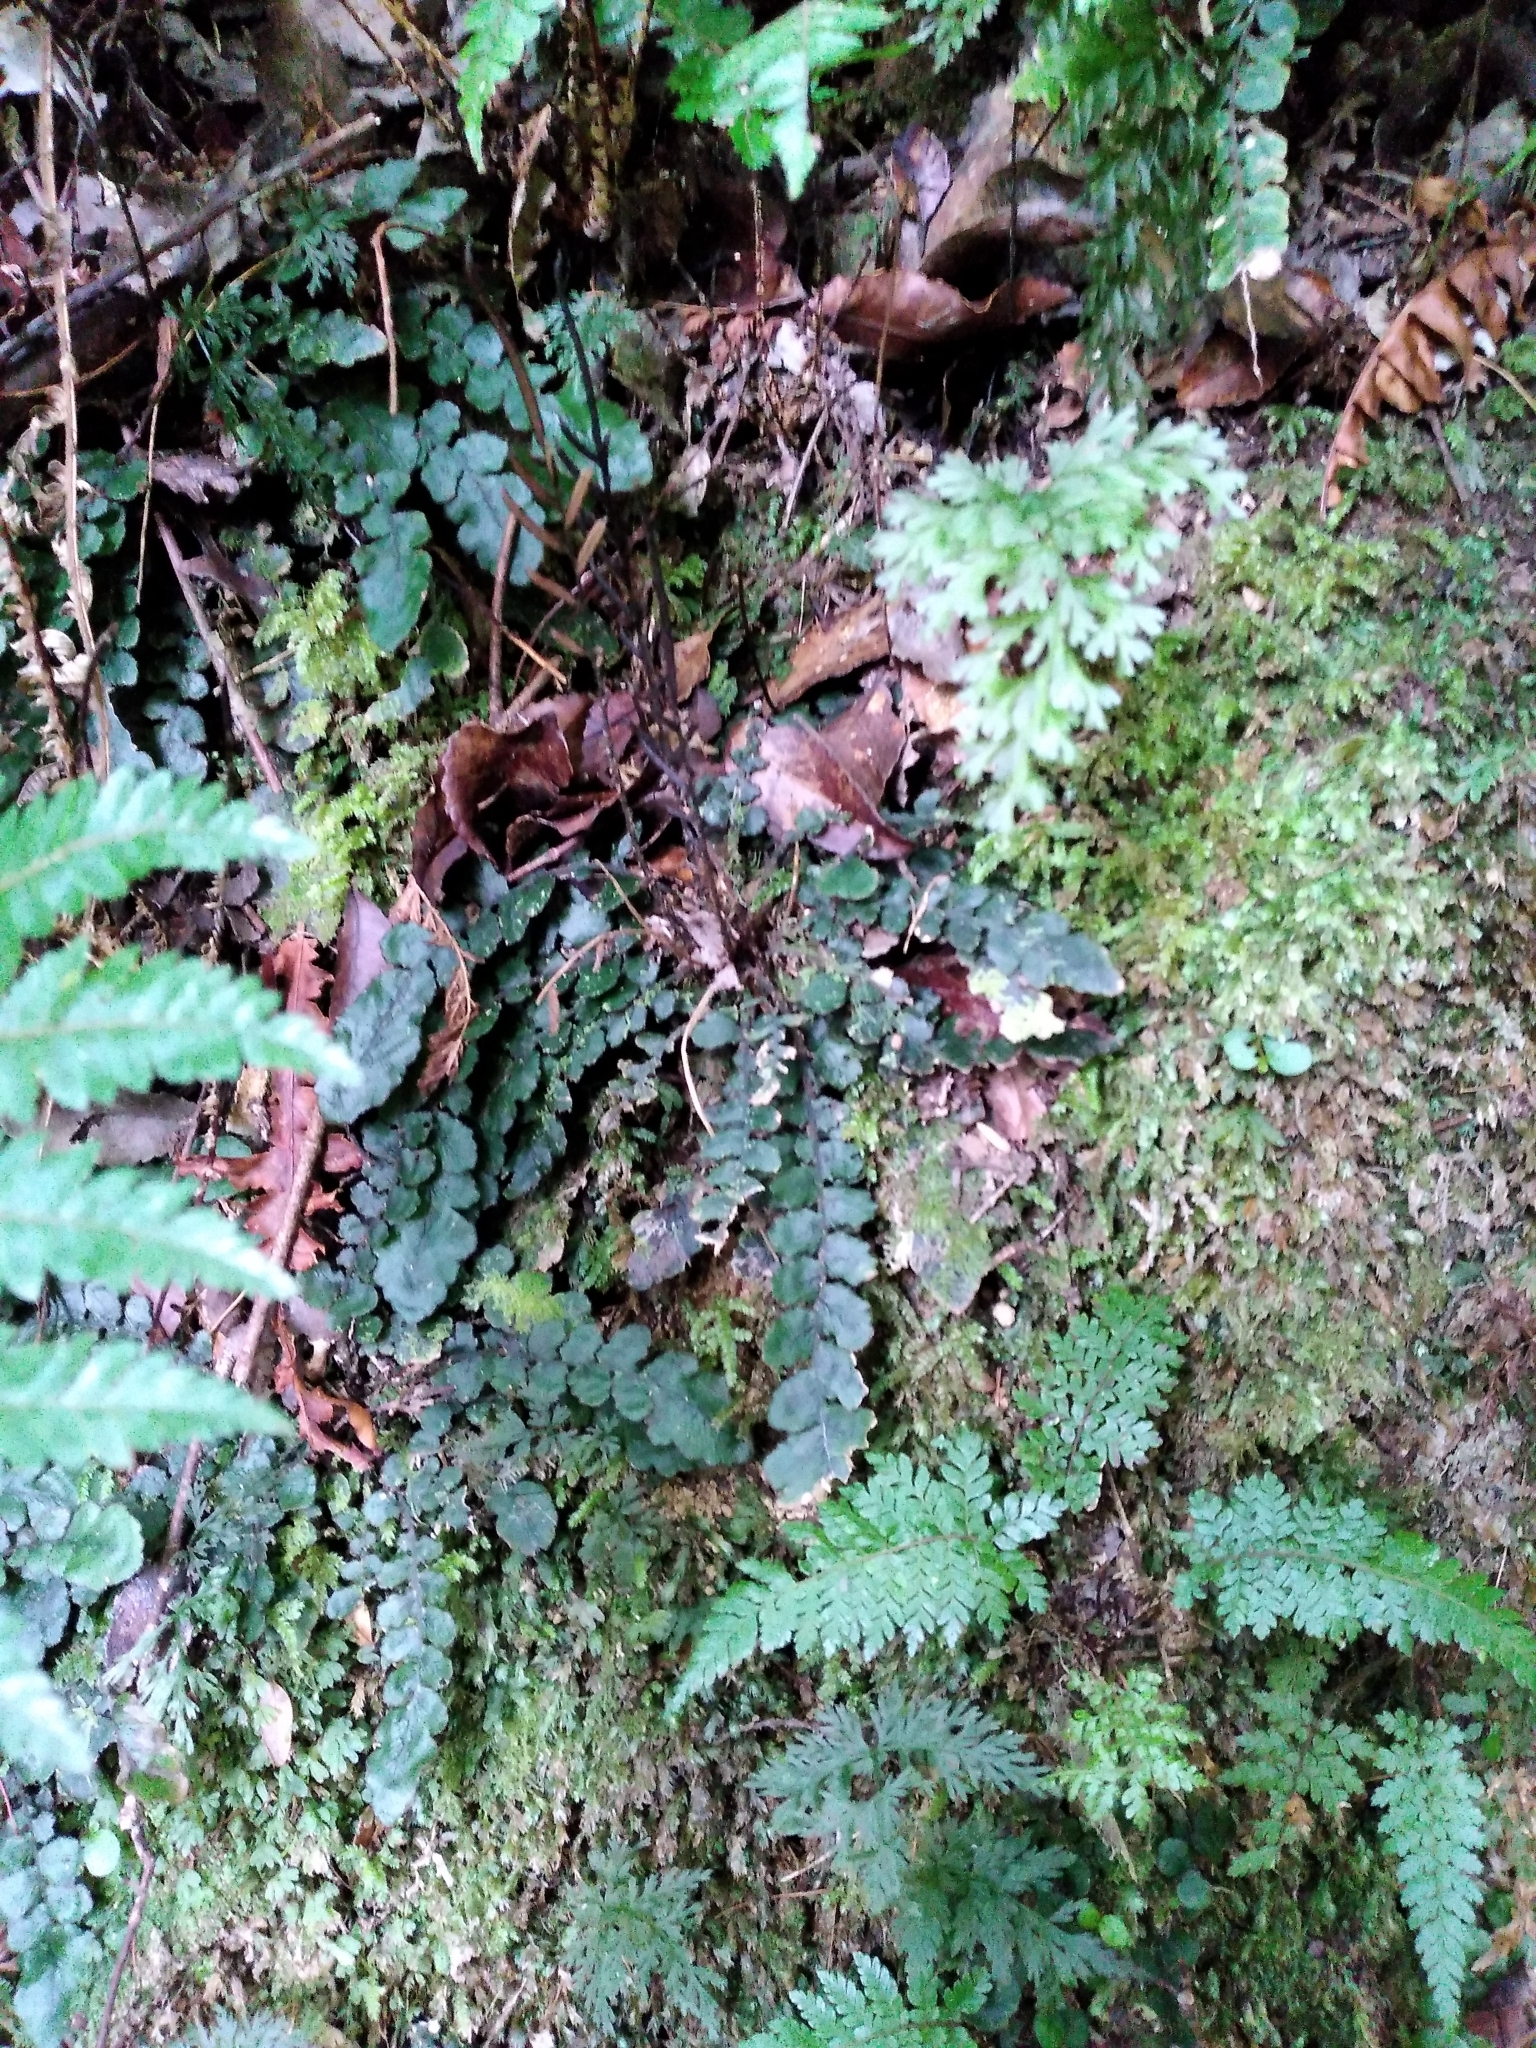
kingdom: Plantae
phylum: Tracheophyta
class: Polypodiopsida
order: Polypodiales
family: Blechnaceae
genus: Cranfillia
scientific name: Cranfillia nigra
